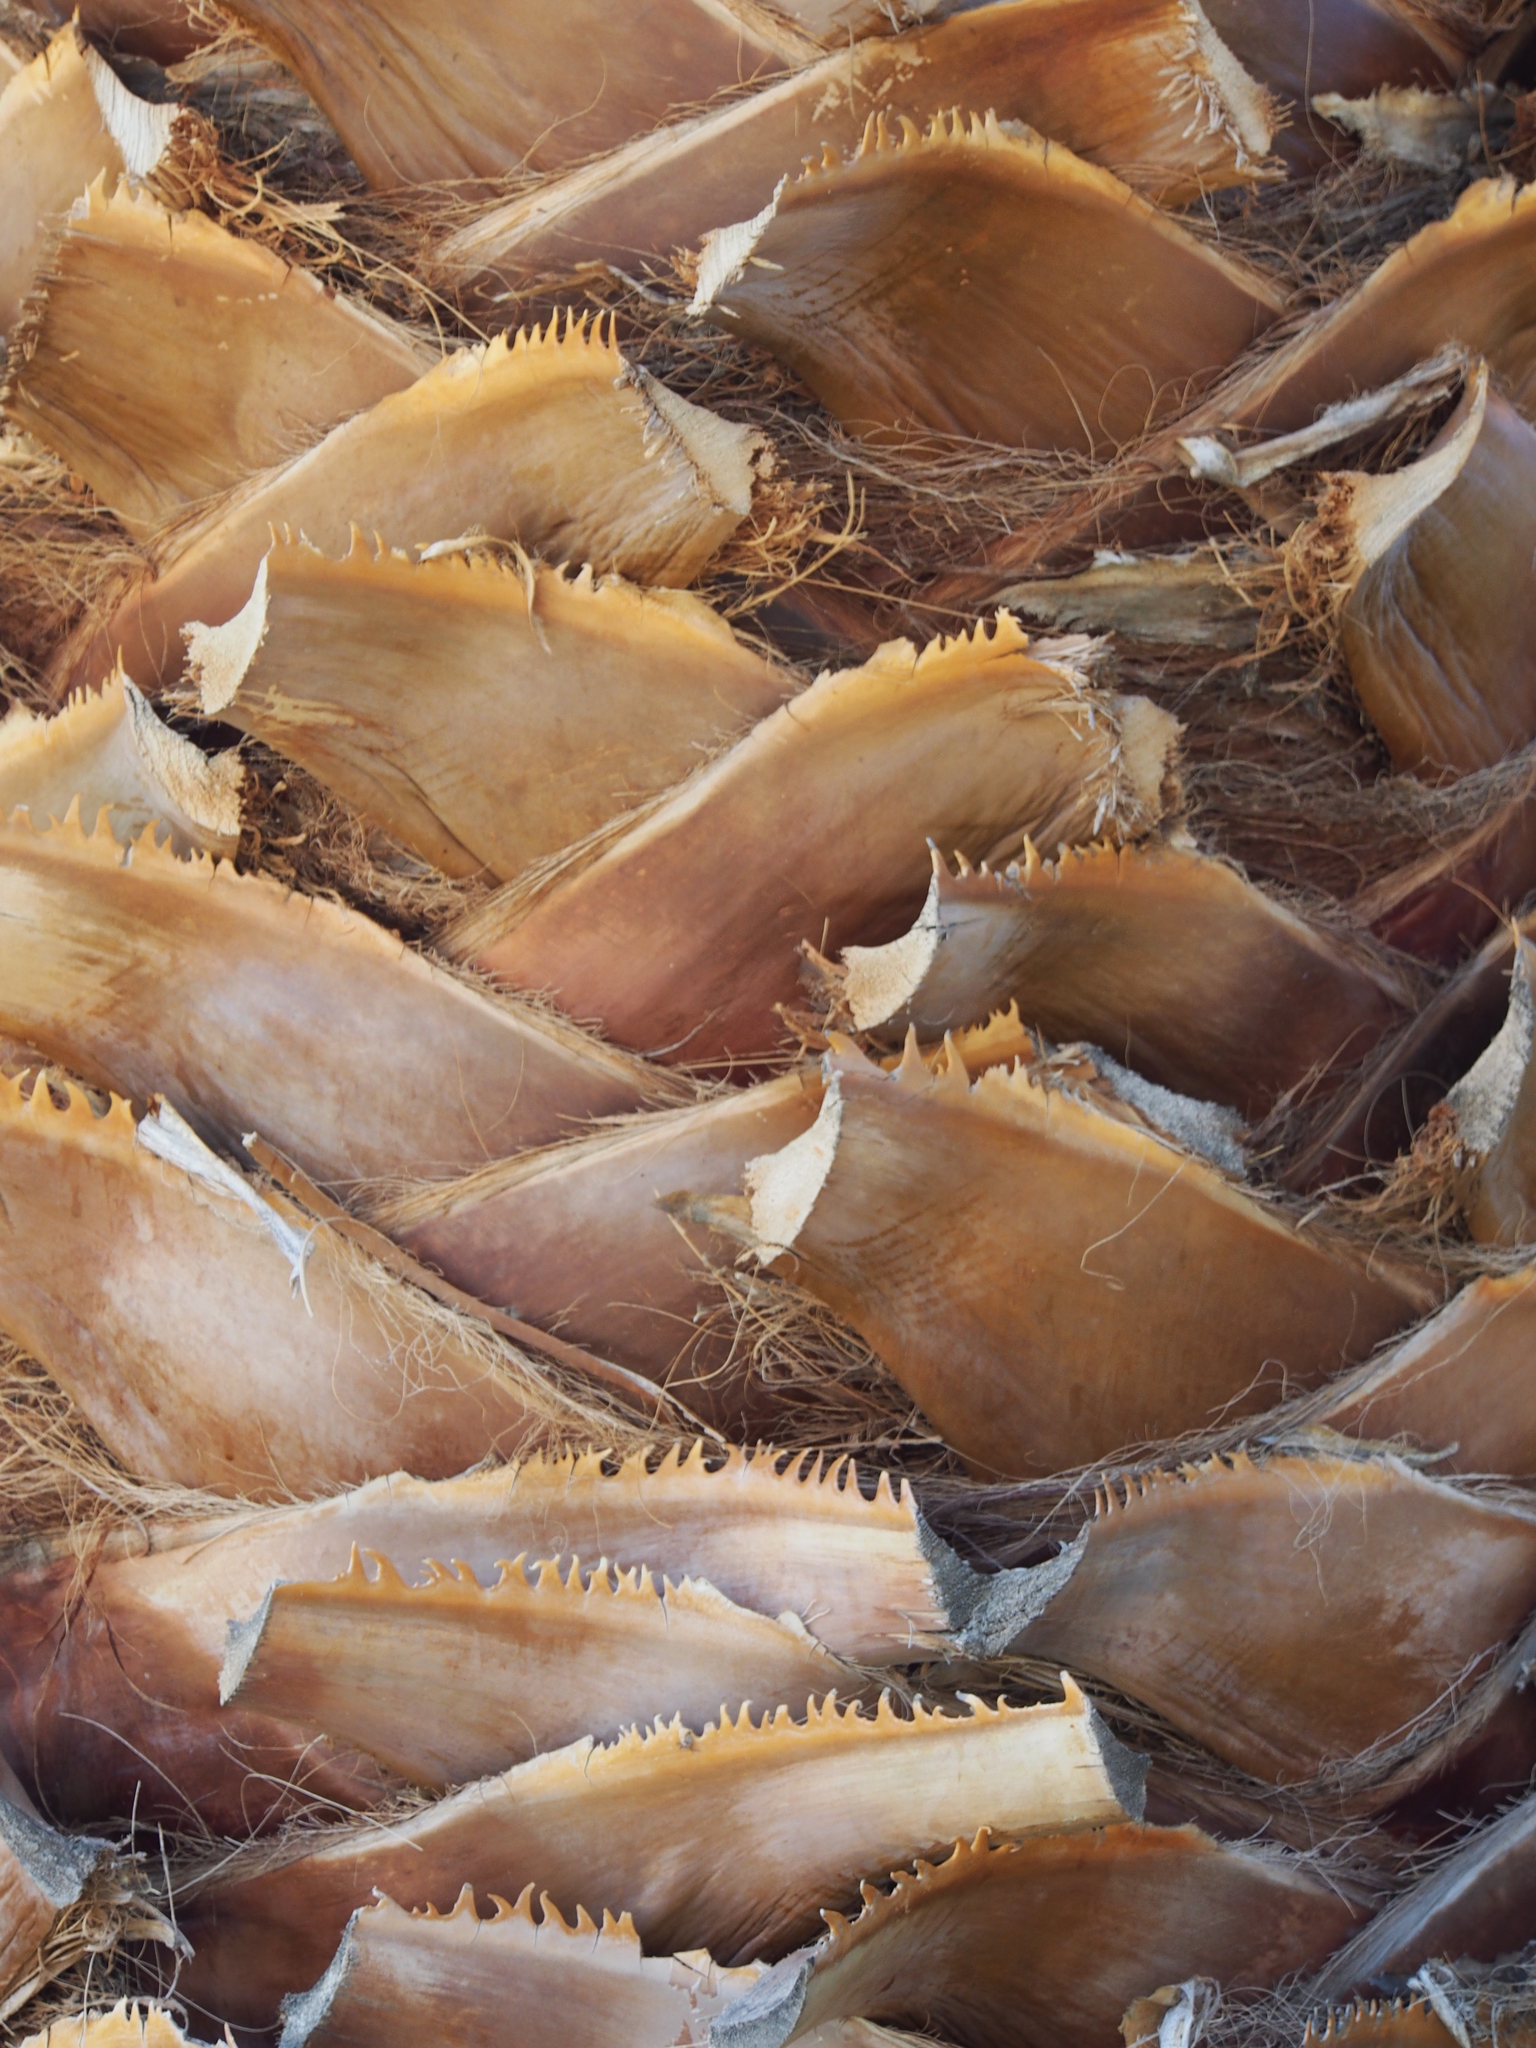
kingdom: Plantae
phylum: Tracheophyta
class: Liliopsida
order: Arecales
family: Arecaceae
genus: Washingtonia
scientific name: Washingtonia filifera
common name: California fan palm
